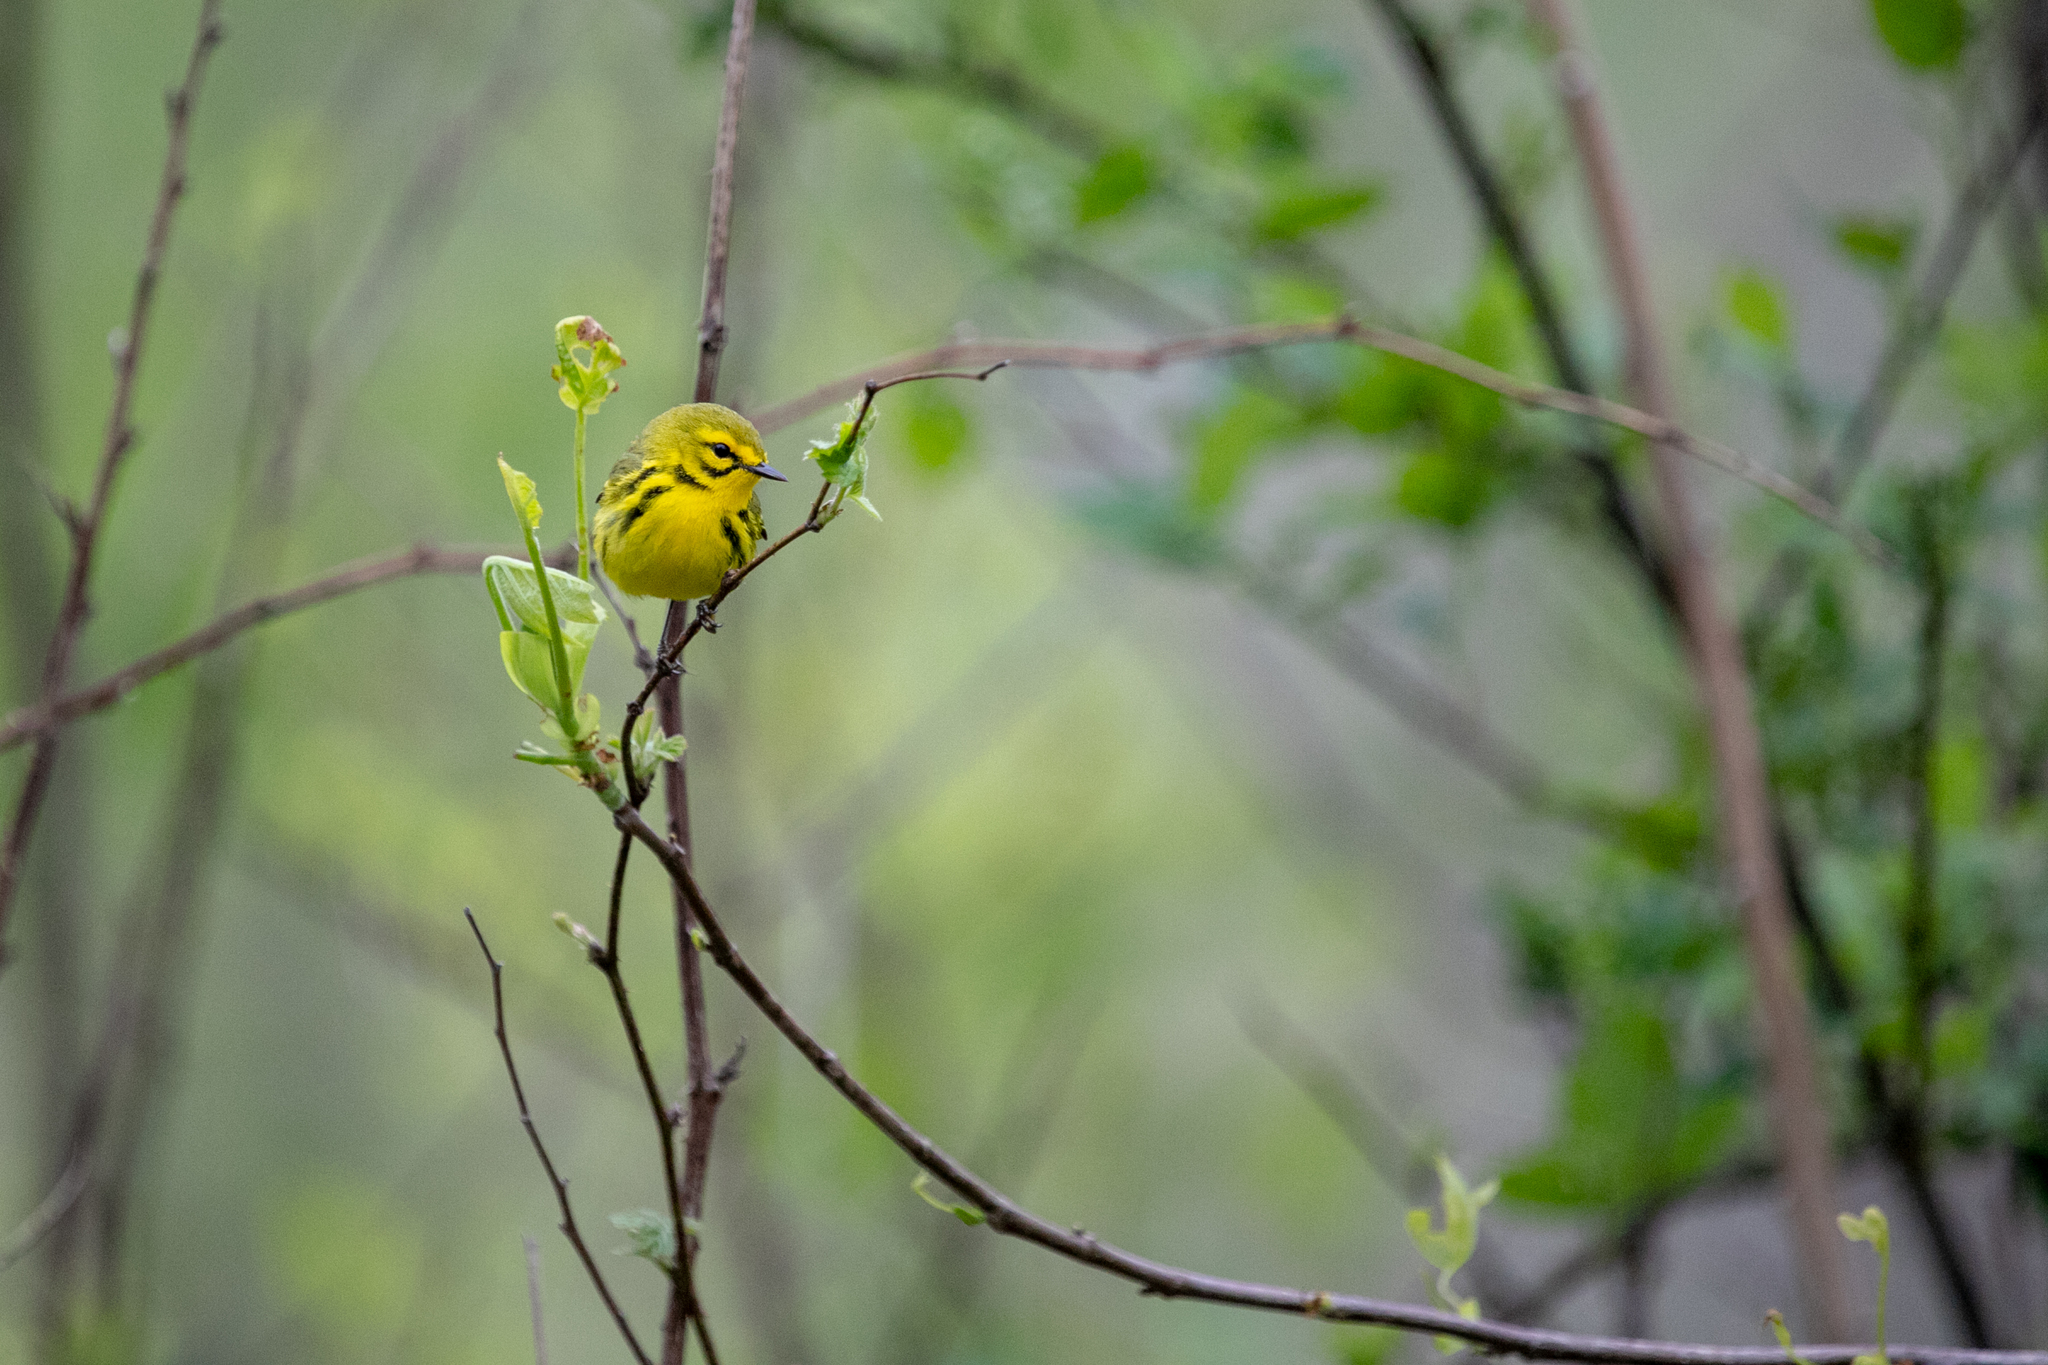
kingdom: Animalia
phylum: Chordata
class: Aves
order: Passeriformes
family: Parulidae
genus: Setophaga
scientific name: Setophaga discolor
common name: Prairie warbler
